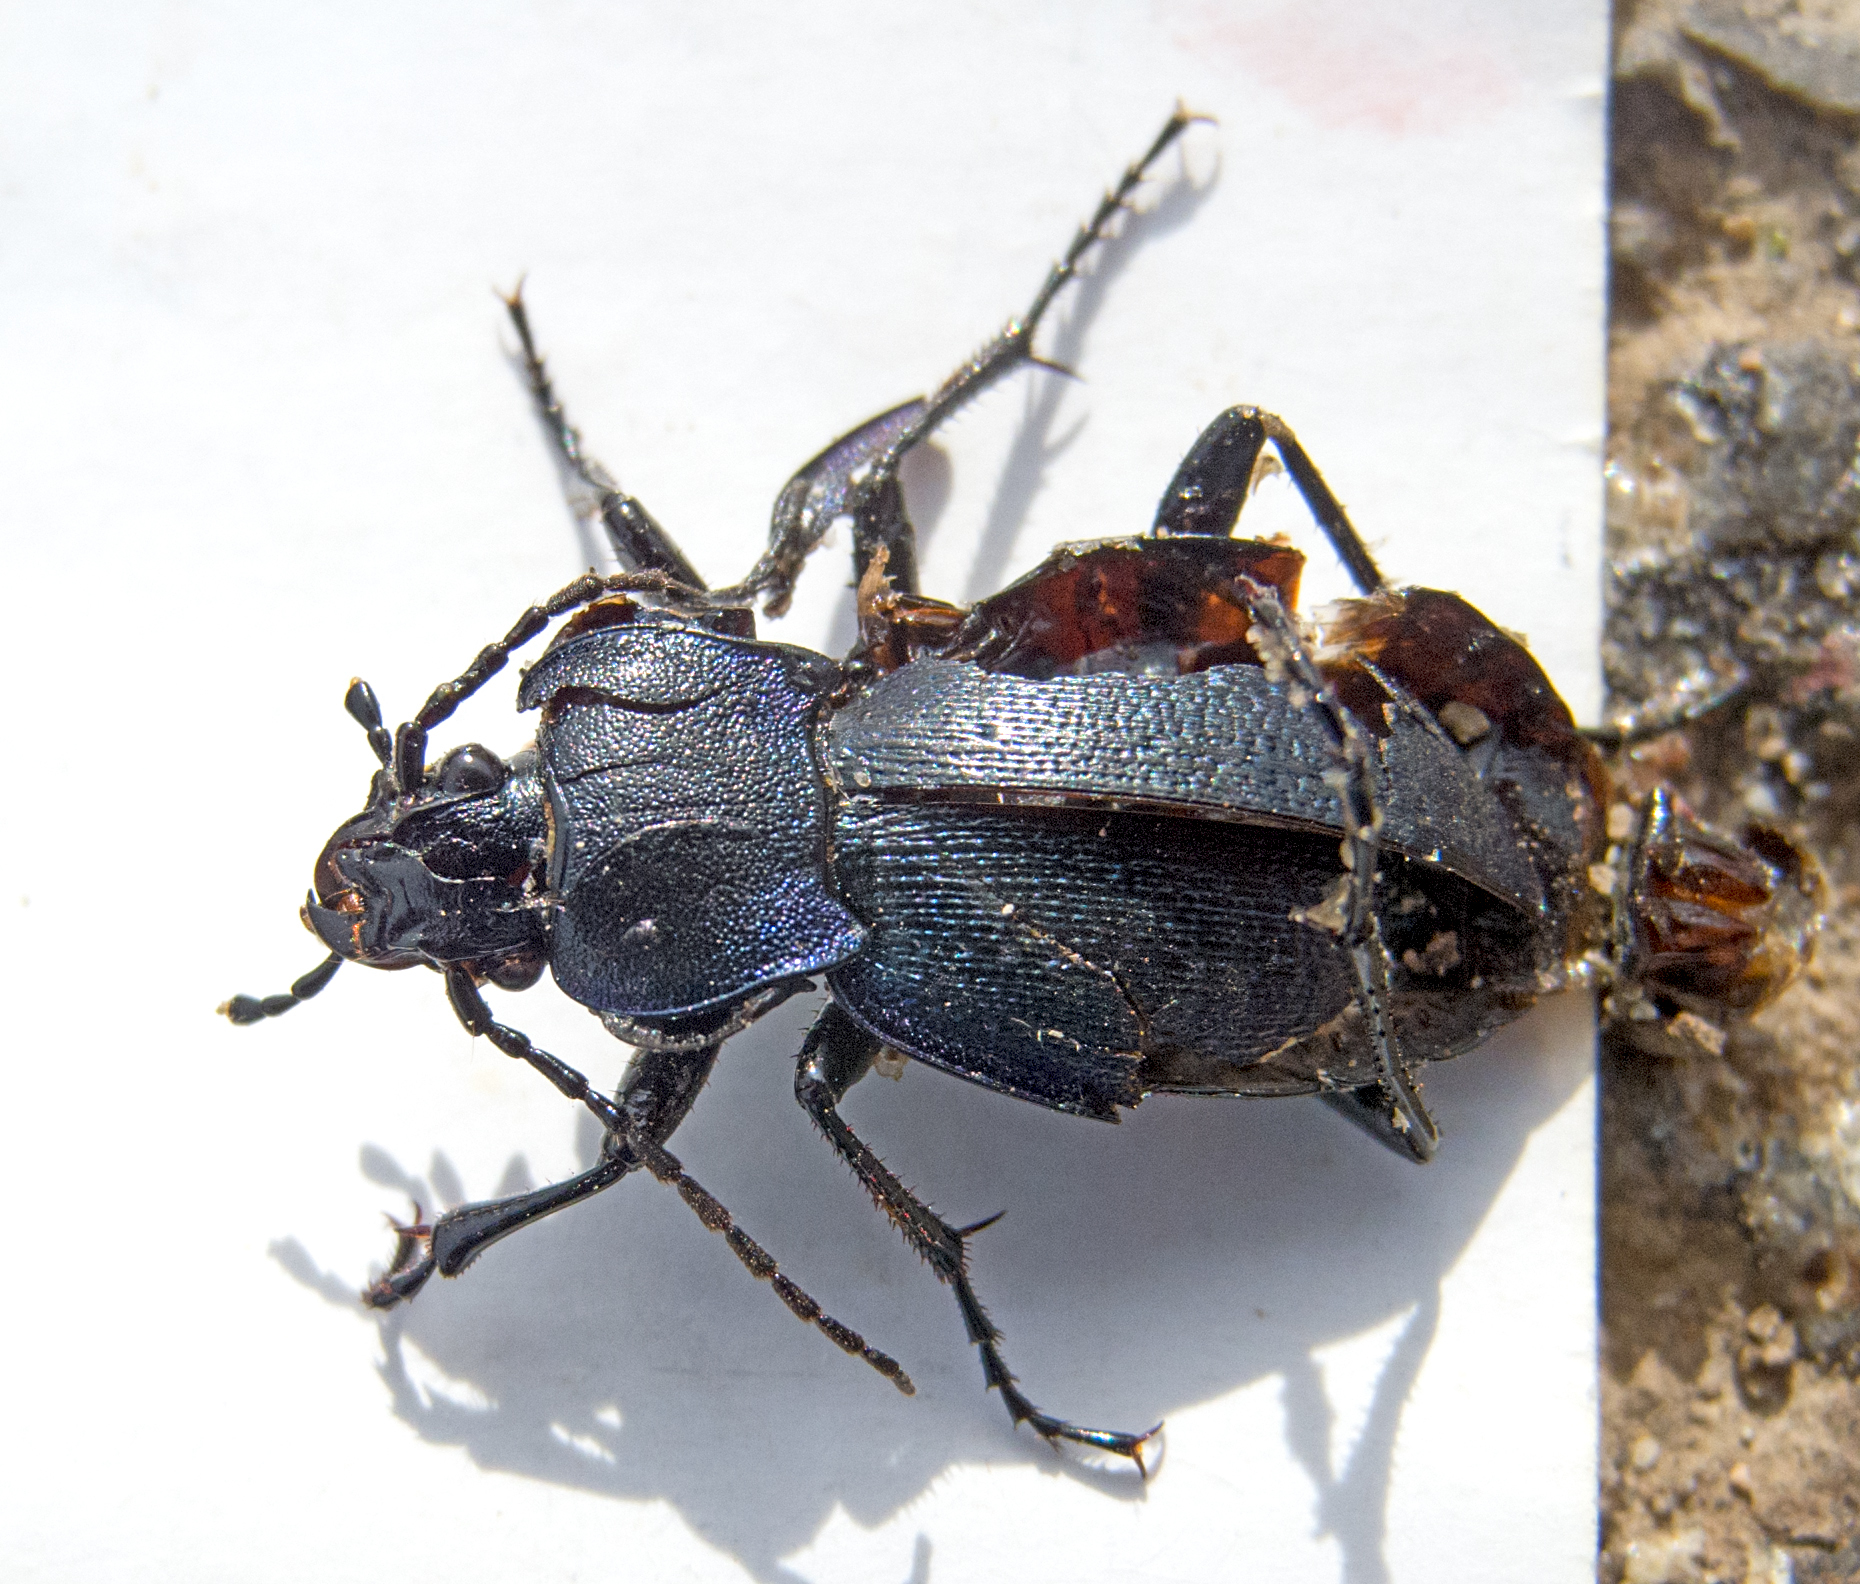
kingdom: Animalia
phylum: Arthropoda
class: Insecta
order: Coleoptera
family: Carabidae
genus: Carabus
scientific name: Carabus wiedemanni
